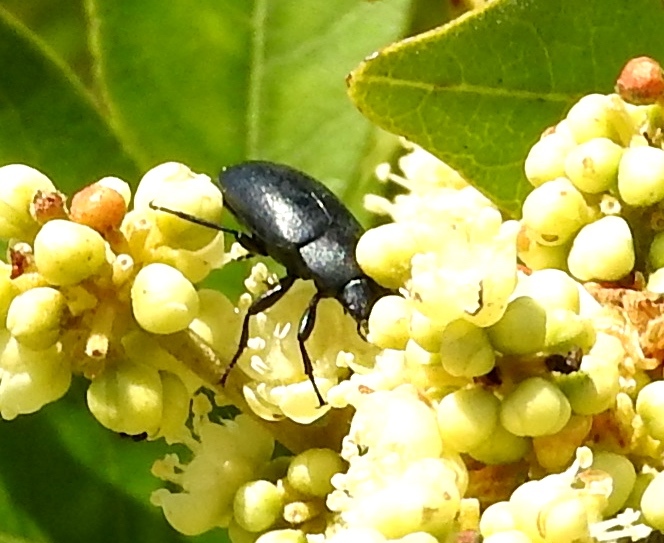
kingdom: Animalia
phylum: Arthropoda
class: Insecta
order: Coleoptera
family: Tenebrionidae
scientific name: Tenebrionidae
